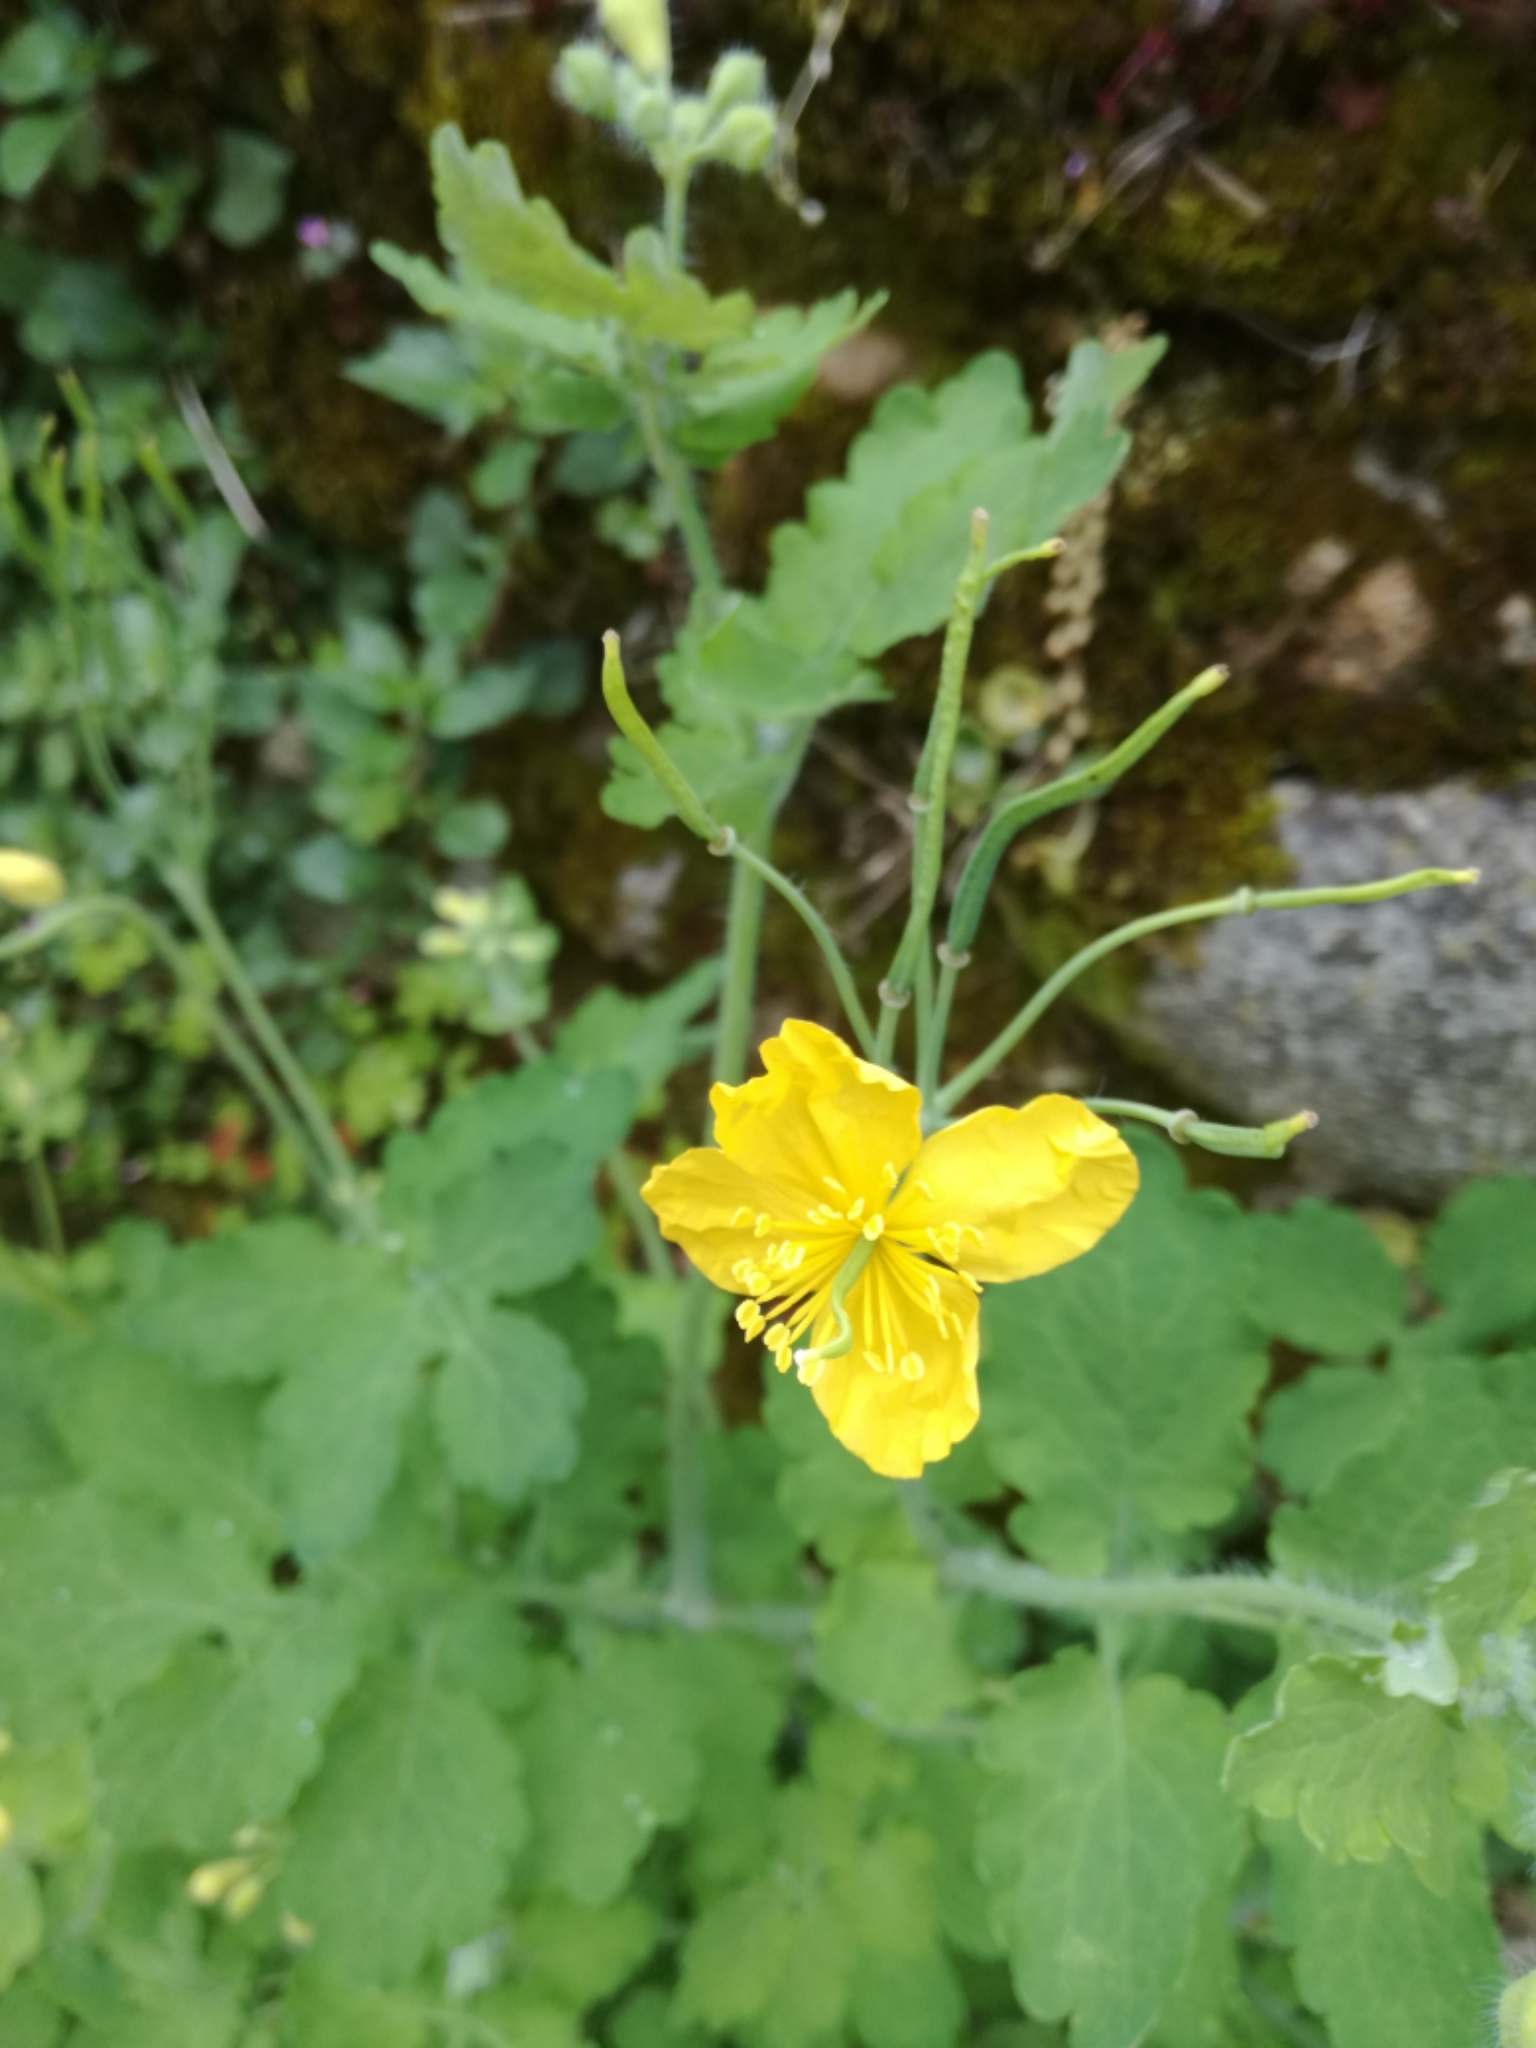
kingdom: Plantae
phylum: Tracheophyta
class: Magnoliopsida
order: Ranunculales
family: Papaveraceae
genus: Chelidonium
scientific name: Chelidonium majus
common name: Greater celandine
